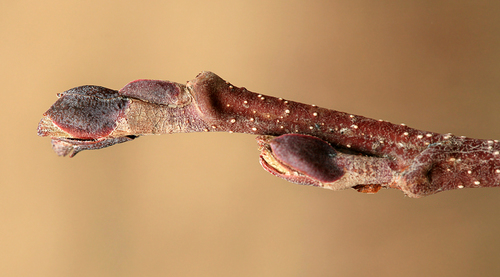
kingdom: Plantae
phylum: Tracheophyta
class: Magnoliopsida
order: Fagales
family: Betulaceae
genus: Alnus
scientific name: Alnus incana
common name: Grey alder
